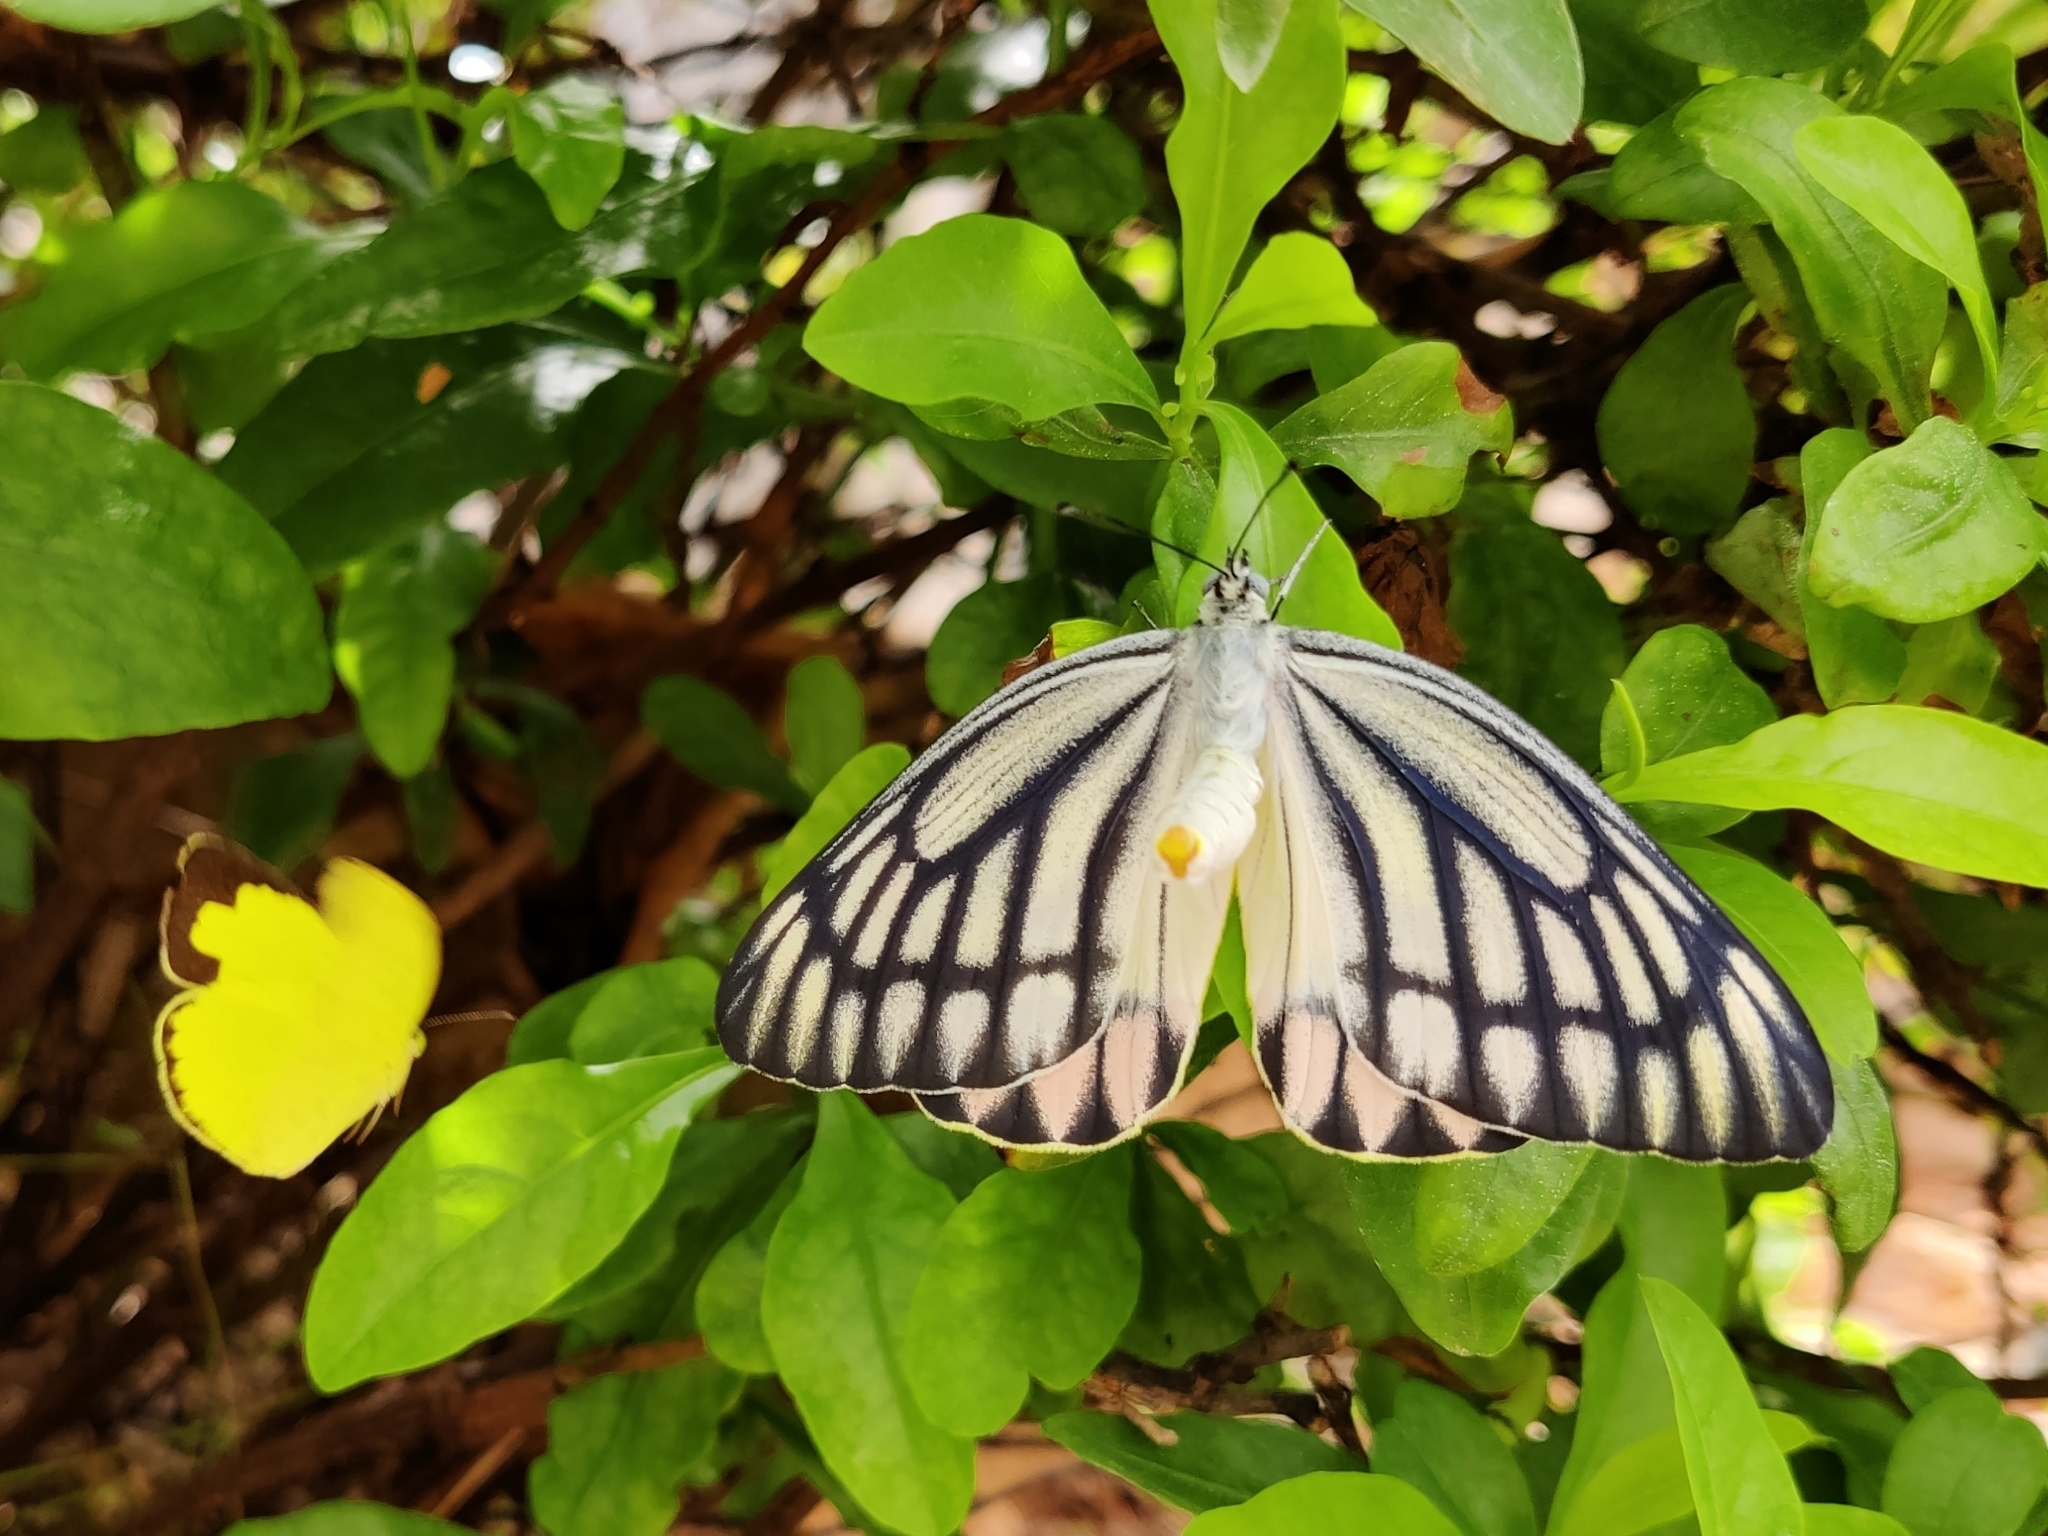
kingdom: Animalia
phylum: Arthropoda
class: Insecta
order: Lepidoptera
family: Pieridae
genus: Delias
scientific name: Delias eucharis
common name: Common jezebel
